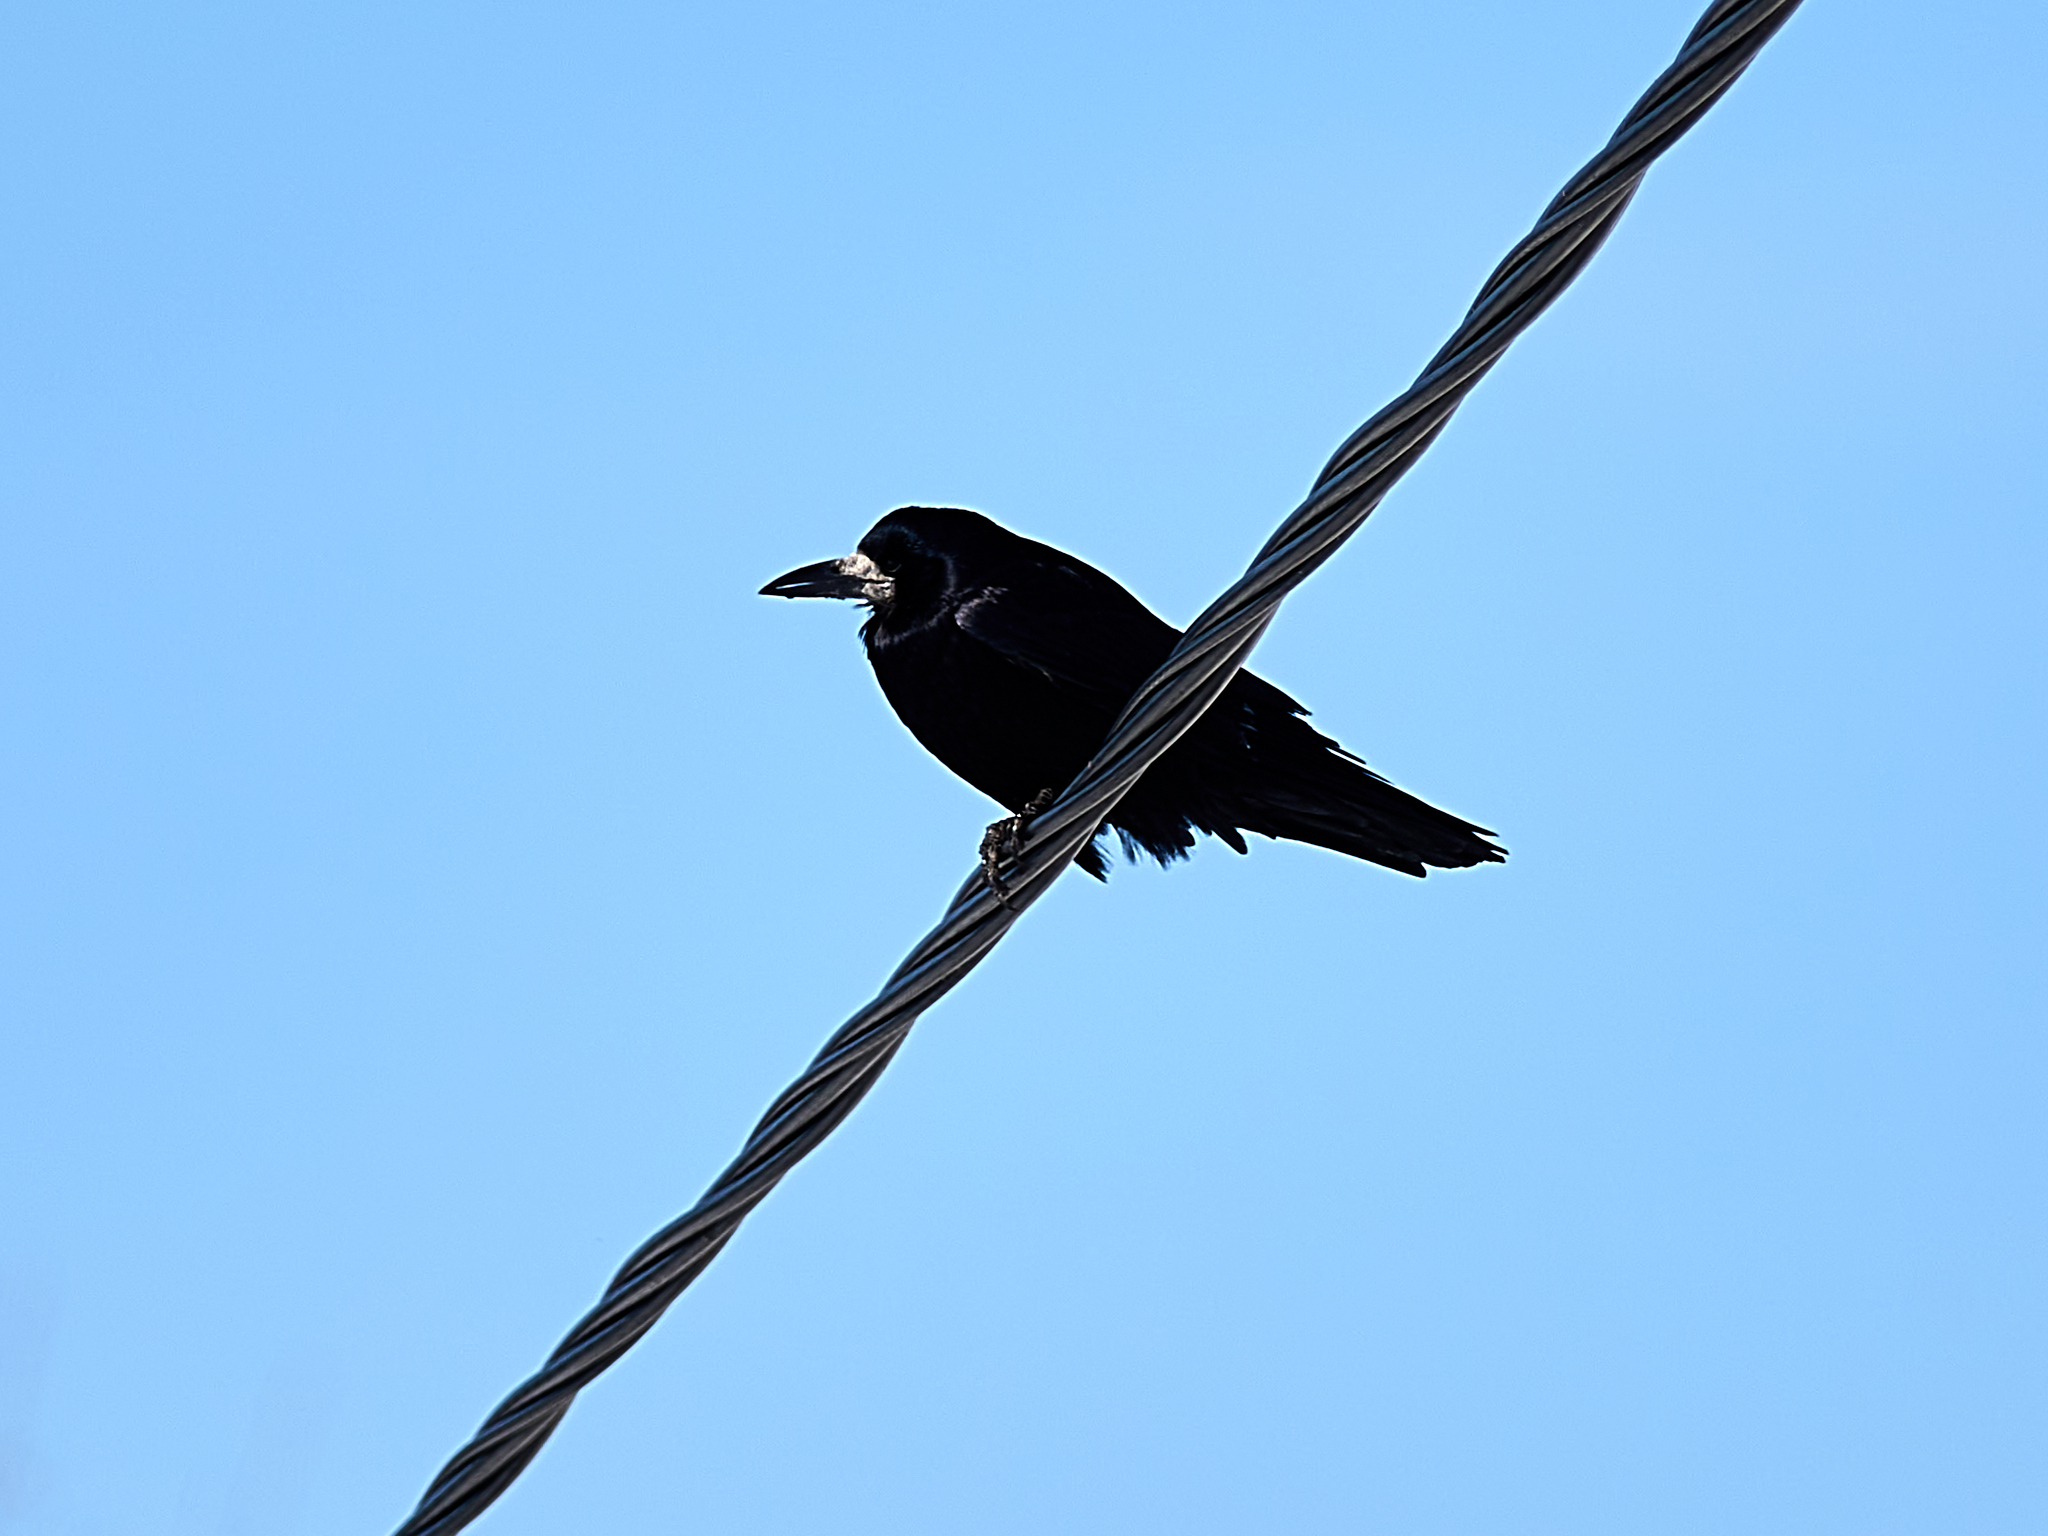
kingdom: Animalia
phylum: Chordata
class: Aves
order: Passeriformes
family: Corvidae
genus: Corvus
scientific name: Corvus frugilegus
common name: Rook
